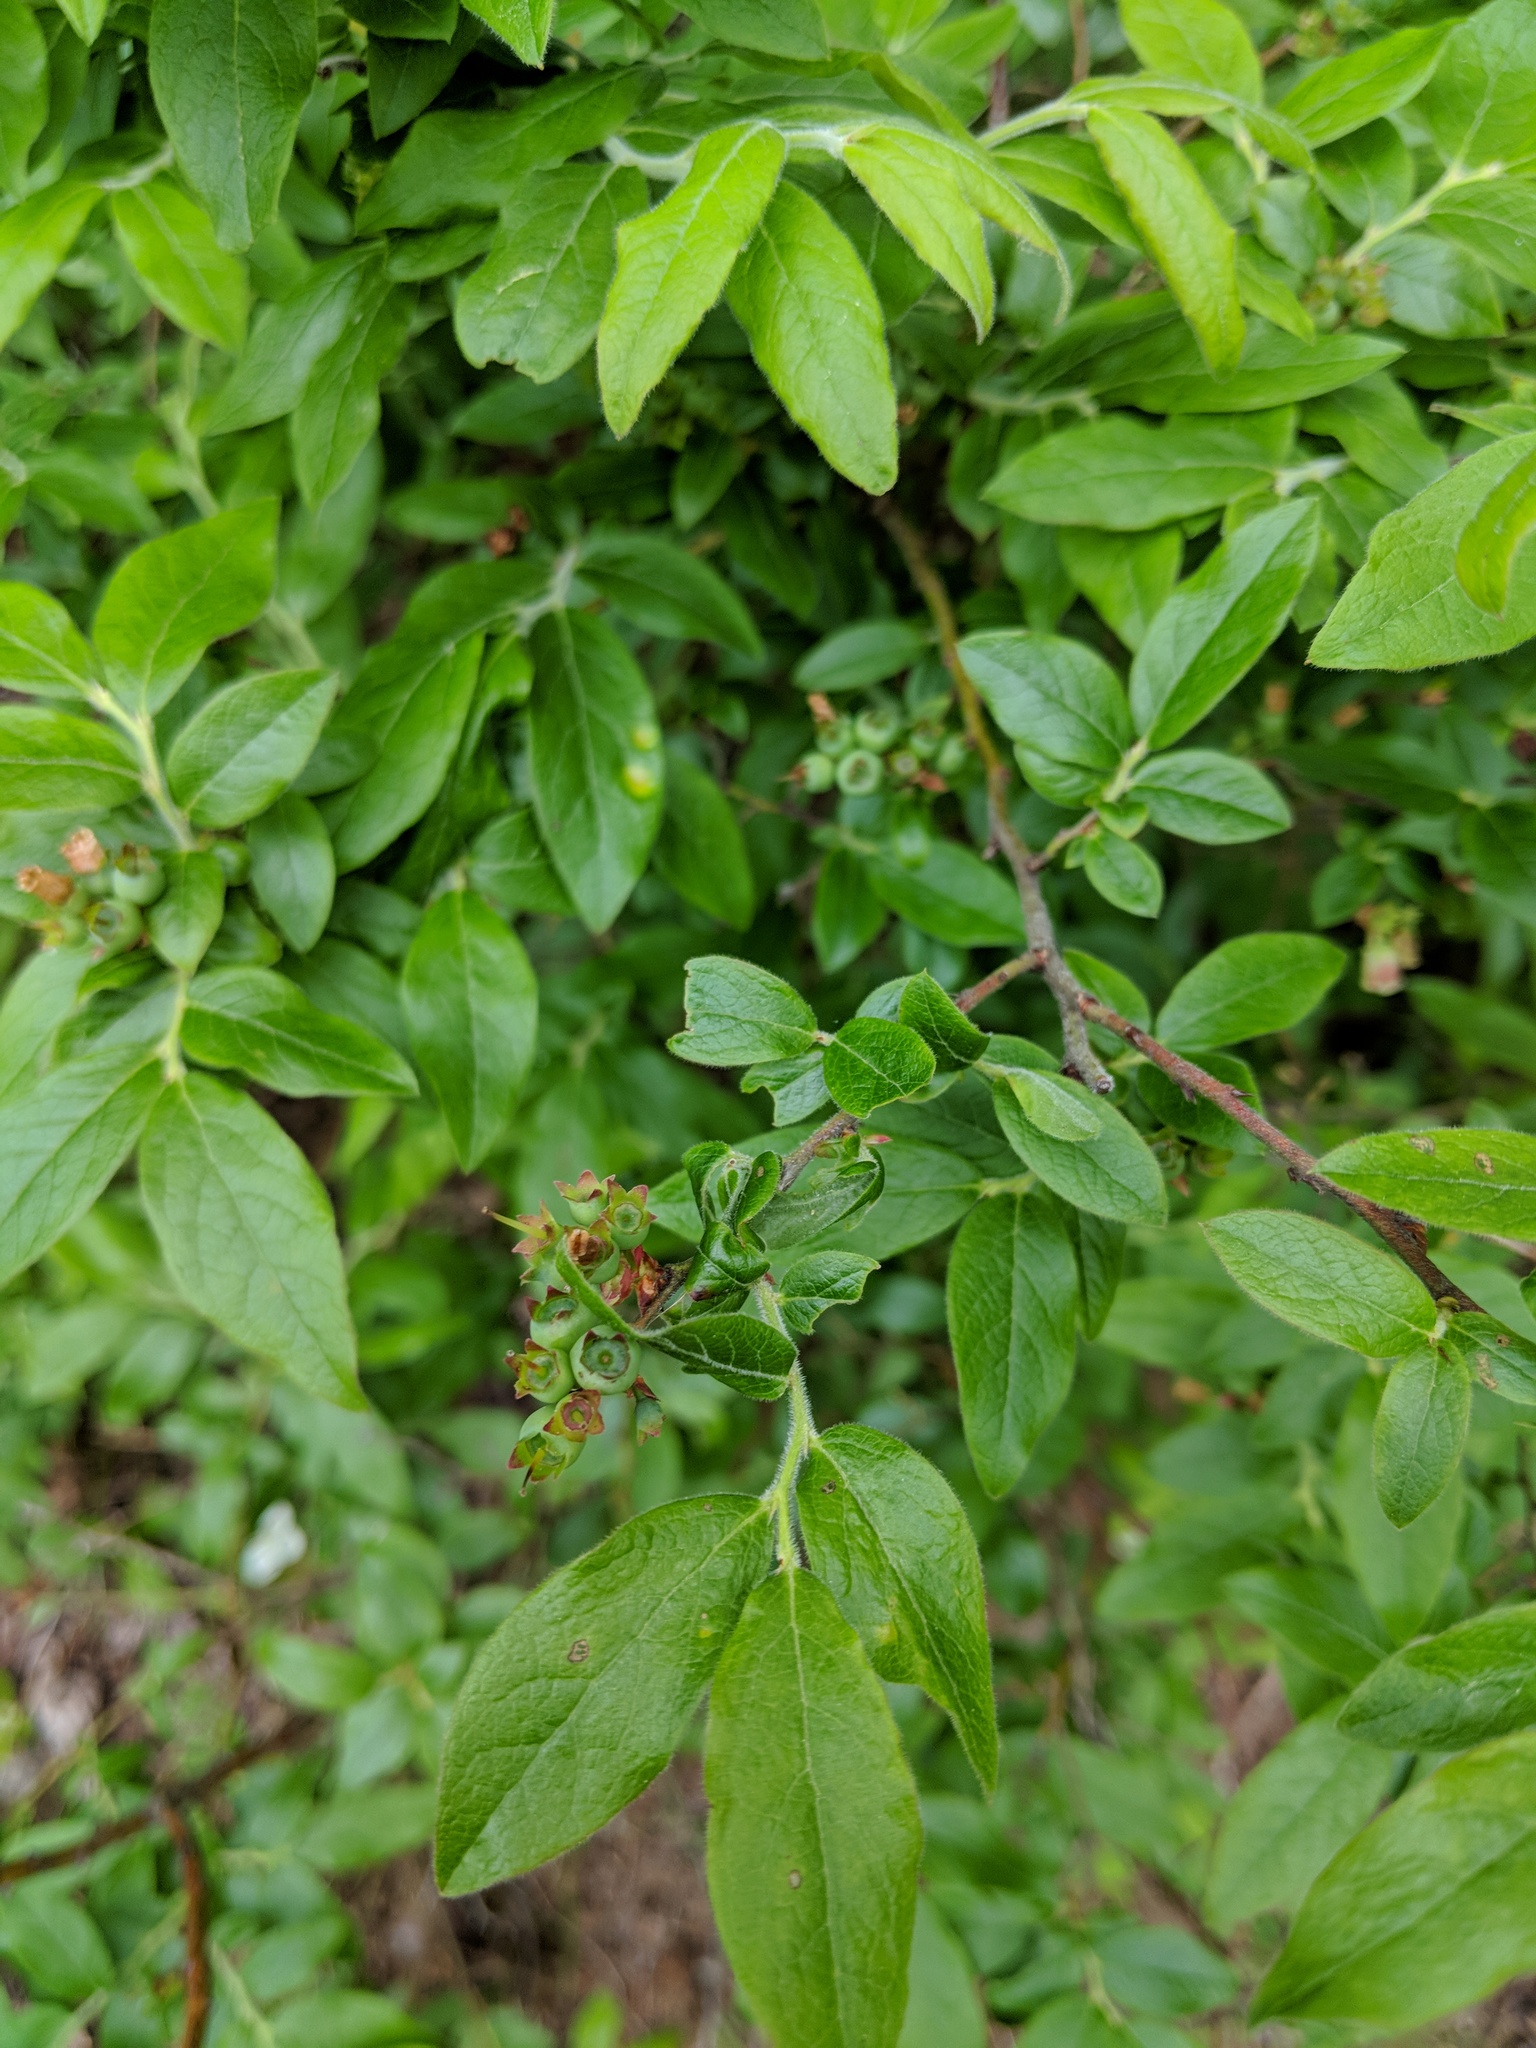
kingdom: Plantae
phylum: Tracheophyta
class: Magnoliopsida
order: Ericales
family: Ericaceae
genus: Vaccinium
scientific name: Vaccinium myrtilloides
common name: Canada blueberry
